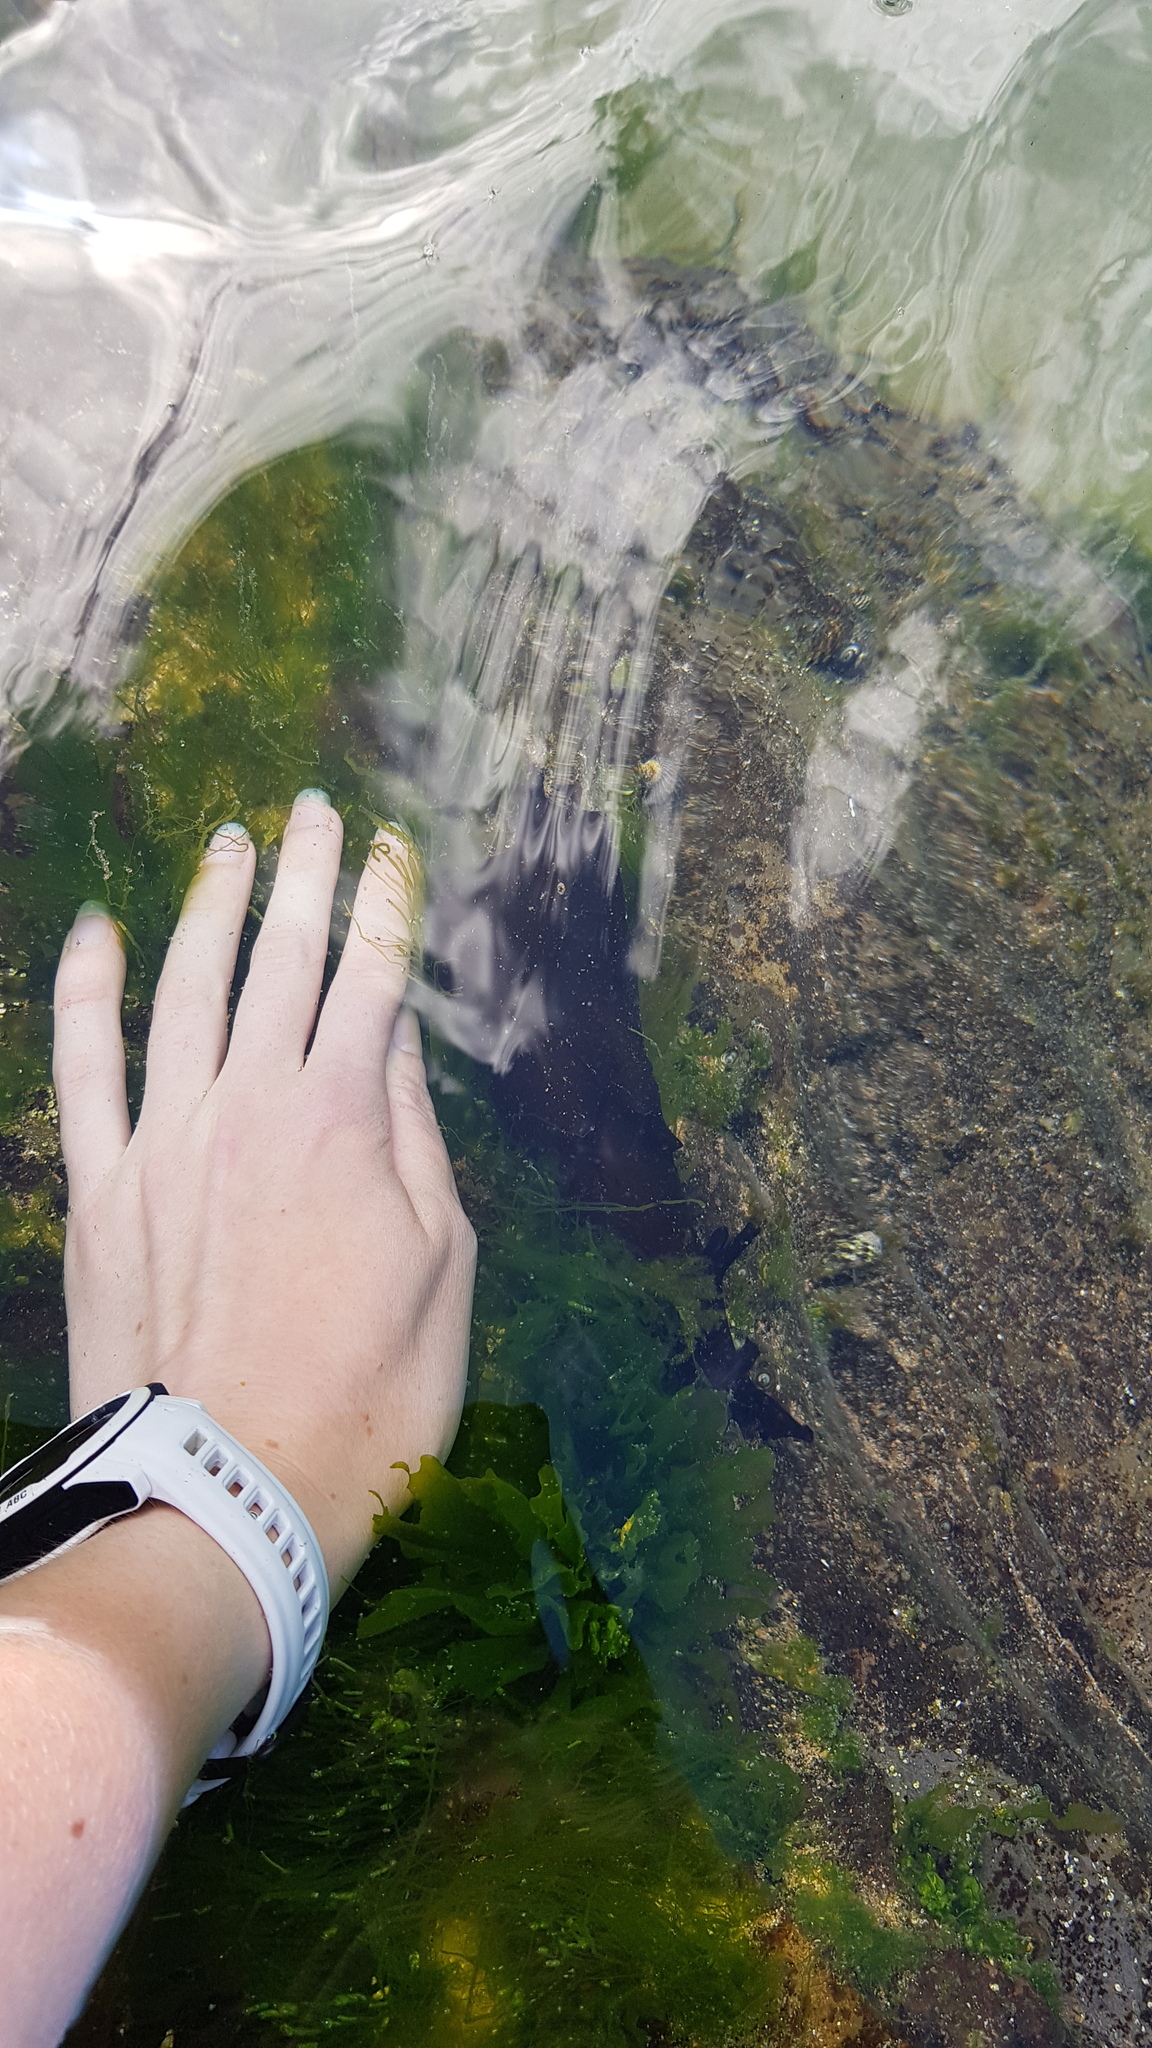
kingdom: Animalia
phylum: Mollusca
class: Gastropoda
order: Aplysiida
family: Aplysiidae
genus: Aplysia
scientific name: Aplysia juliana
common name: Walking sea hare
